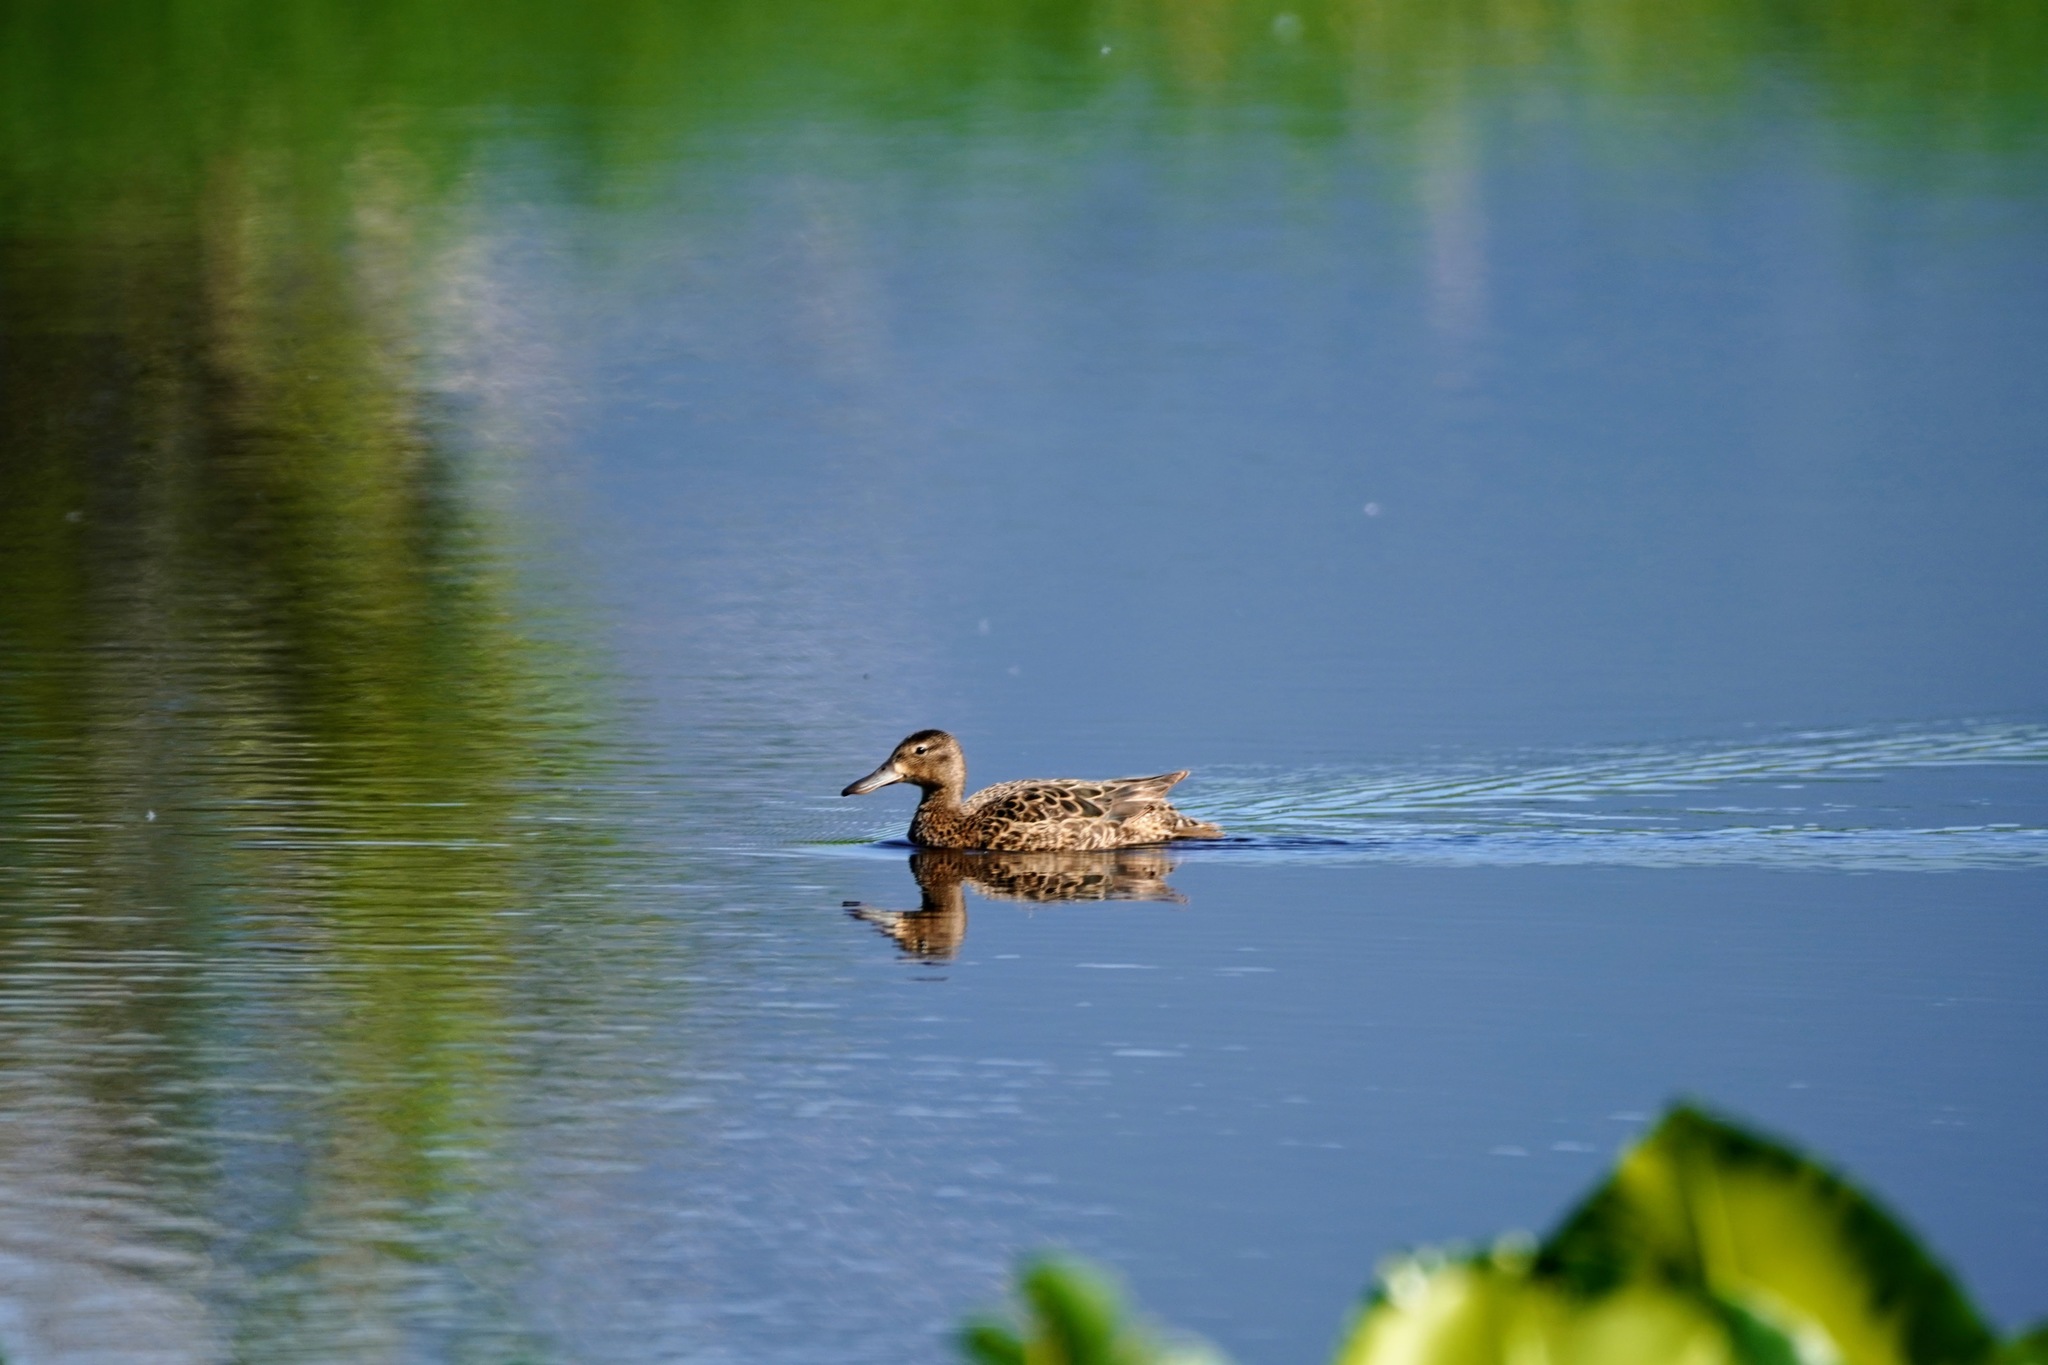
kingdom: Animalia
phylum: Chordata
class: Aves
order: Anseriformes
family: Anatidae
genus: Spatula
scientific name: Spatula cyanoptera
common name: Cinnamon teal
